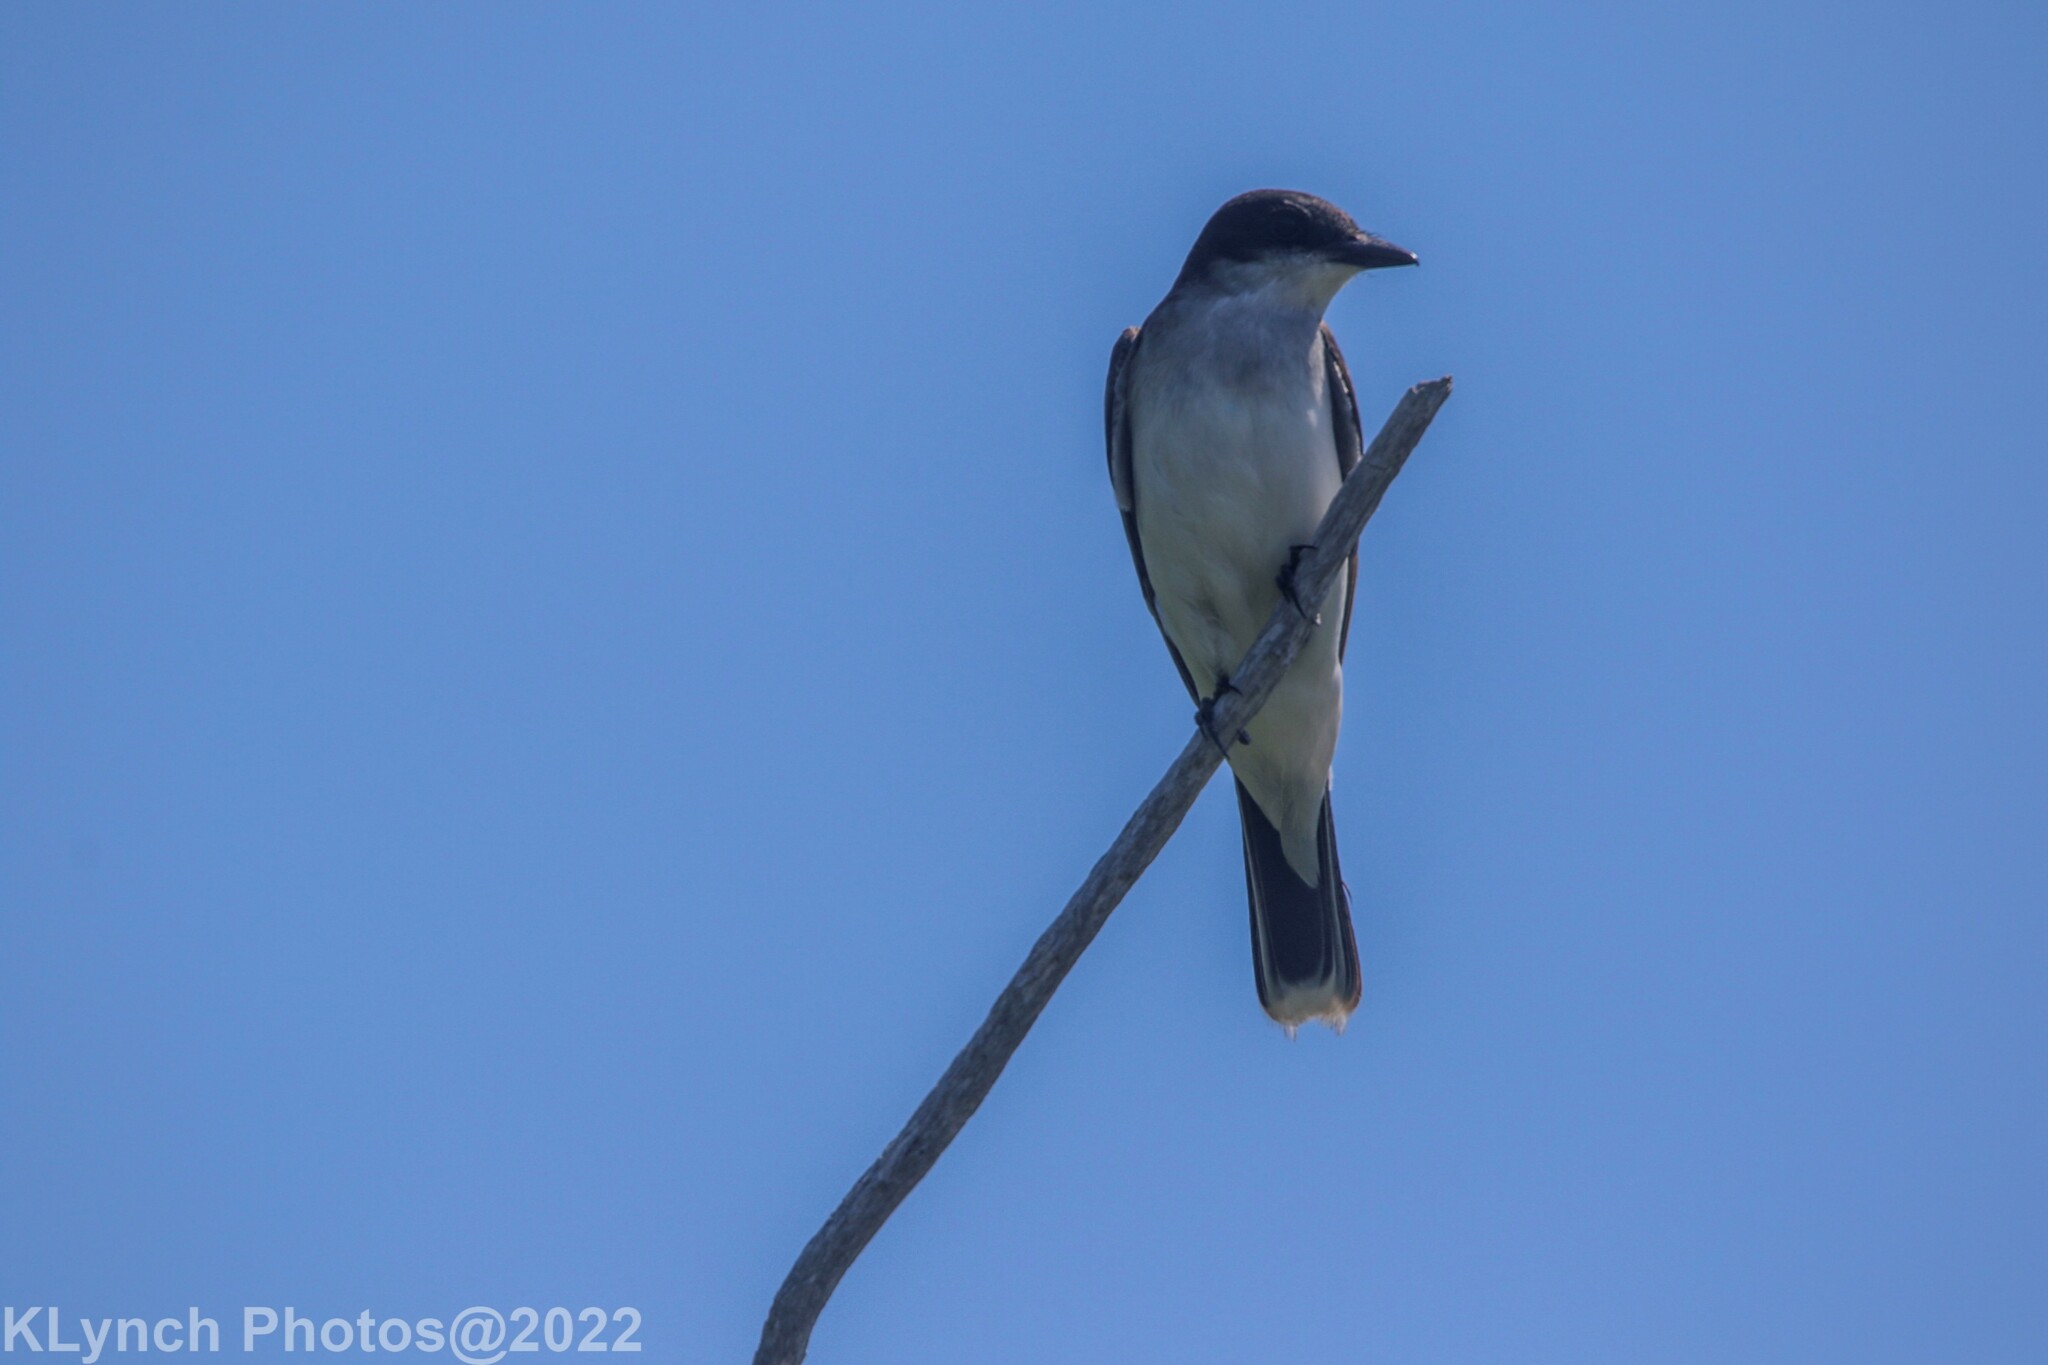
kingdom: Animalia
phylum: Chordata
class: Aves
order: Passeriformes
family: Tyrannidae
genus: Tyrannus
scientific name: Tyrannus tyrannus
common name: Eastern kingbird
